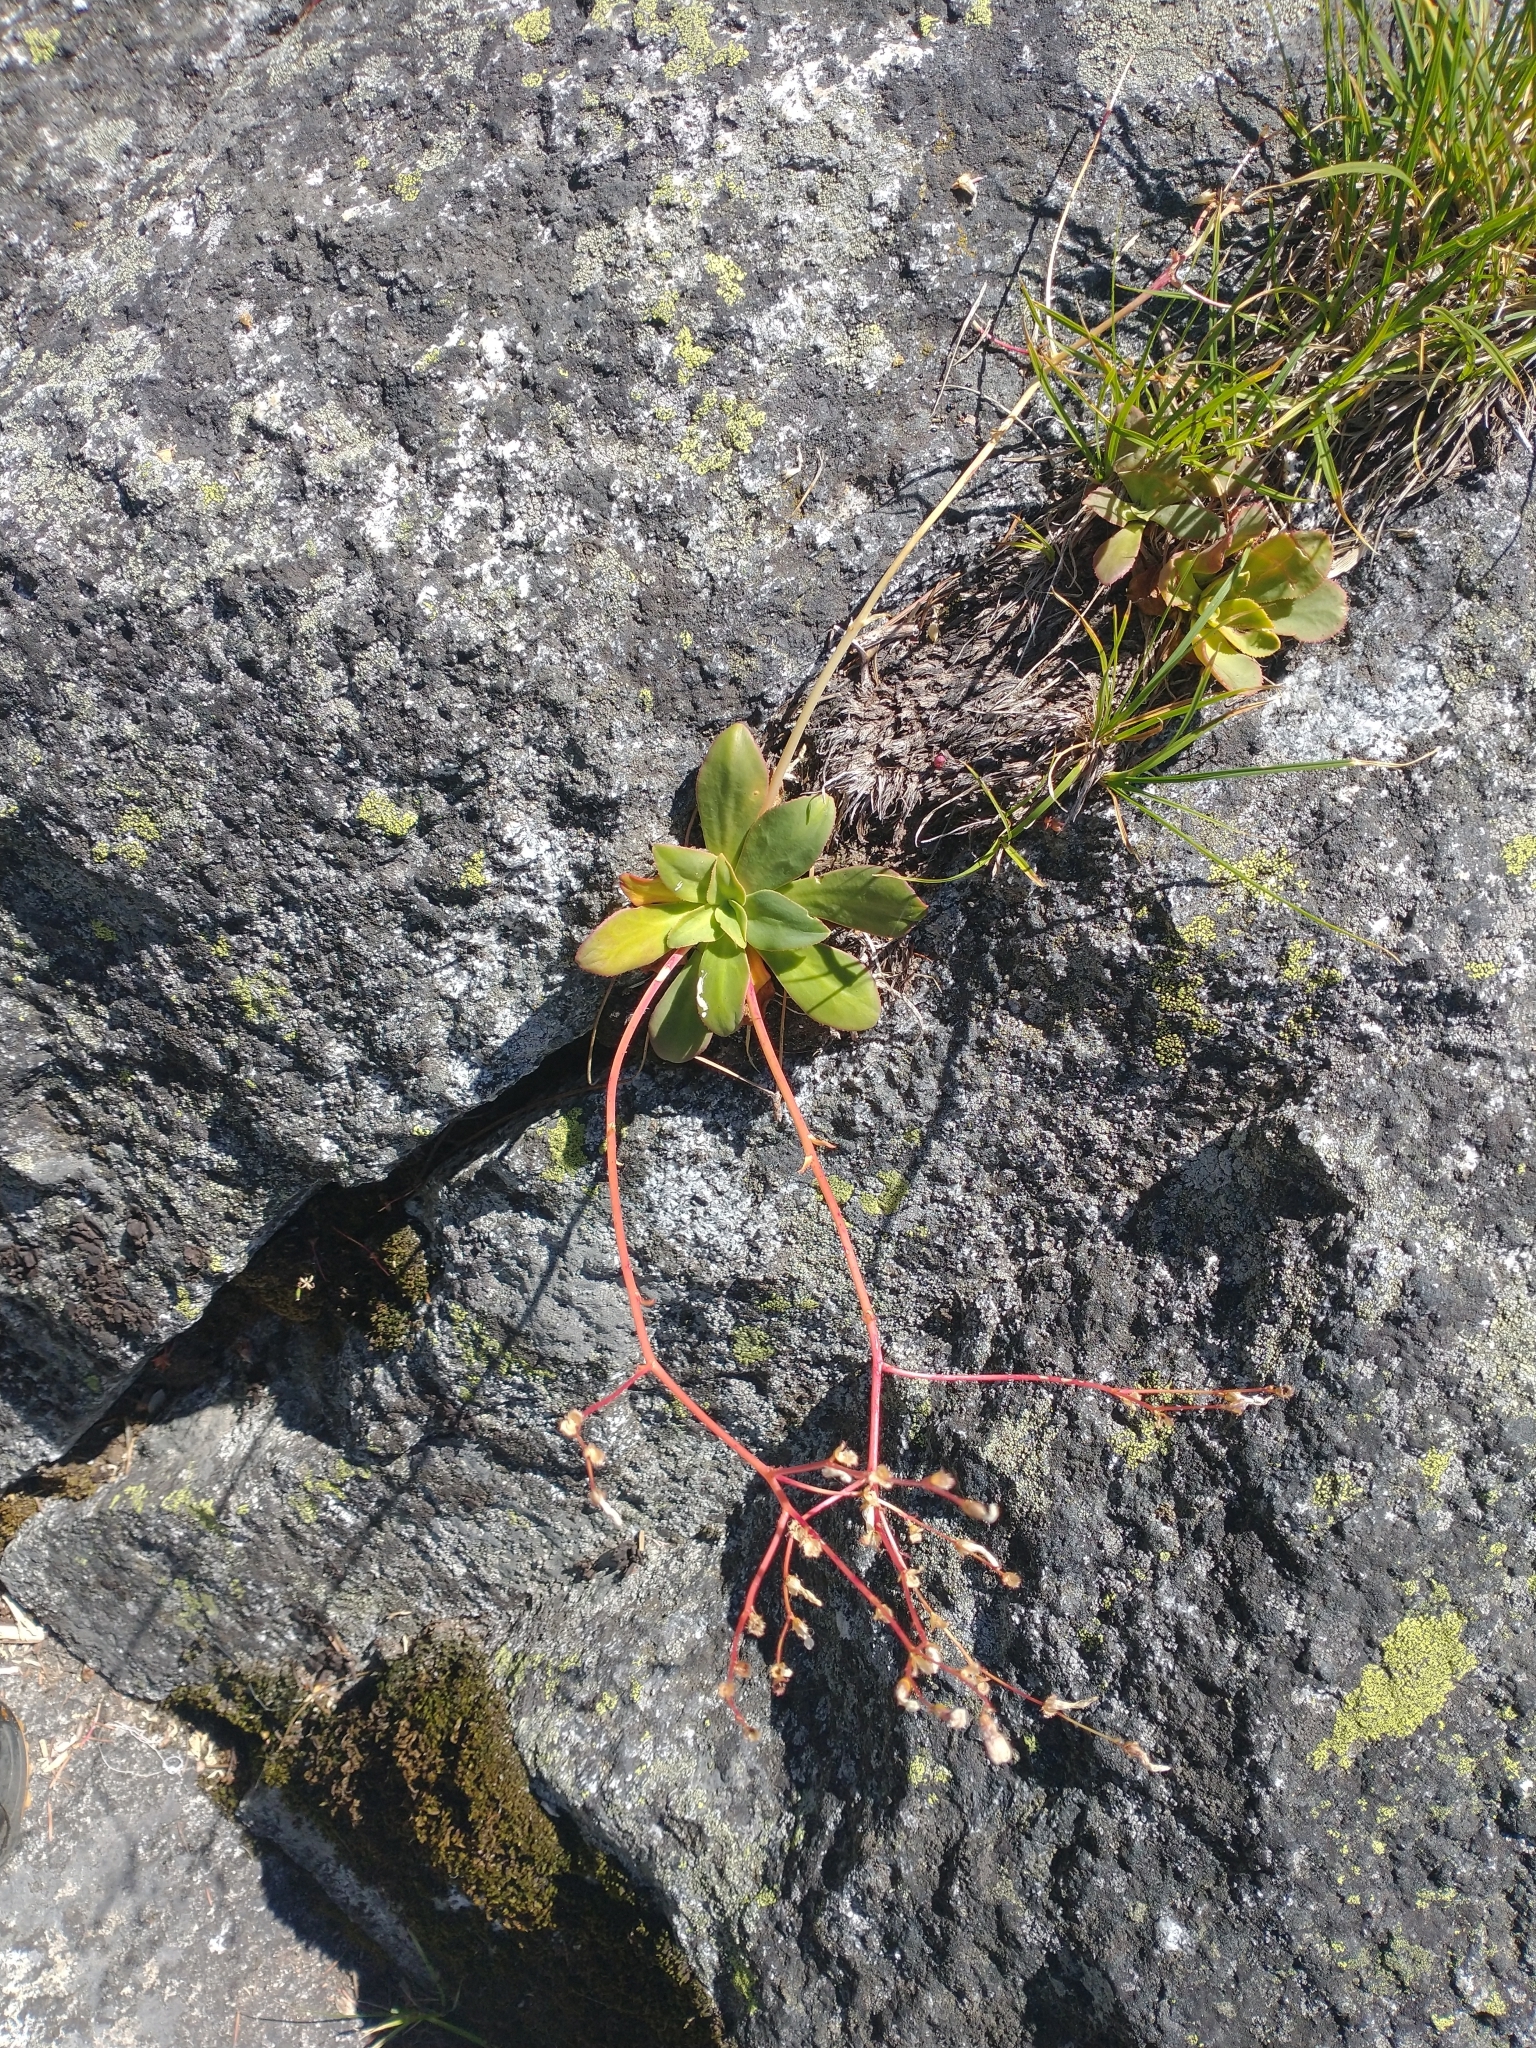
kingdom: Plantae
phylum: Tracheophyta
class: Magnoliopsida
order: Caryophyllales
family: Montiaceae
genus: Lewisia
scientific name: Lewisia cotyledon
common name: Siskiyou lewisia
